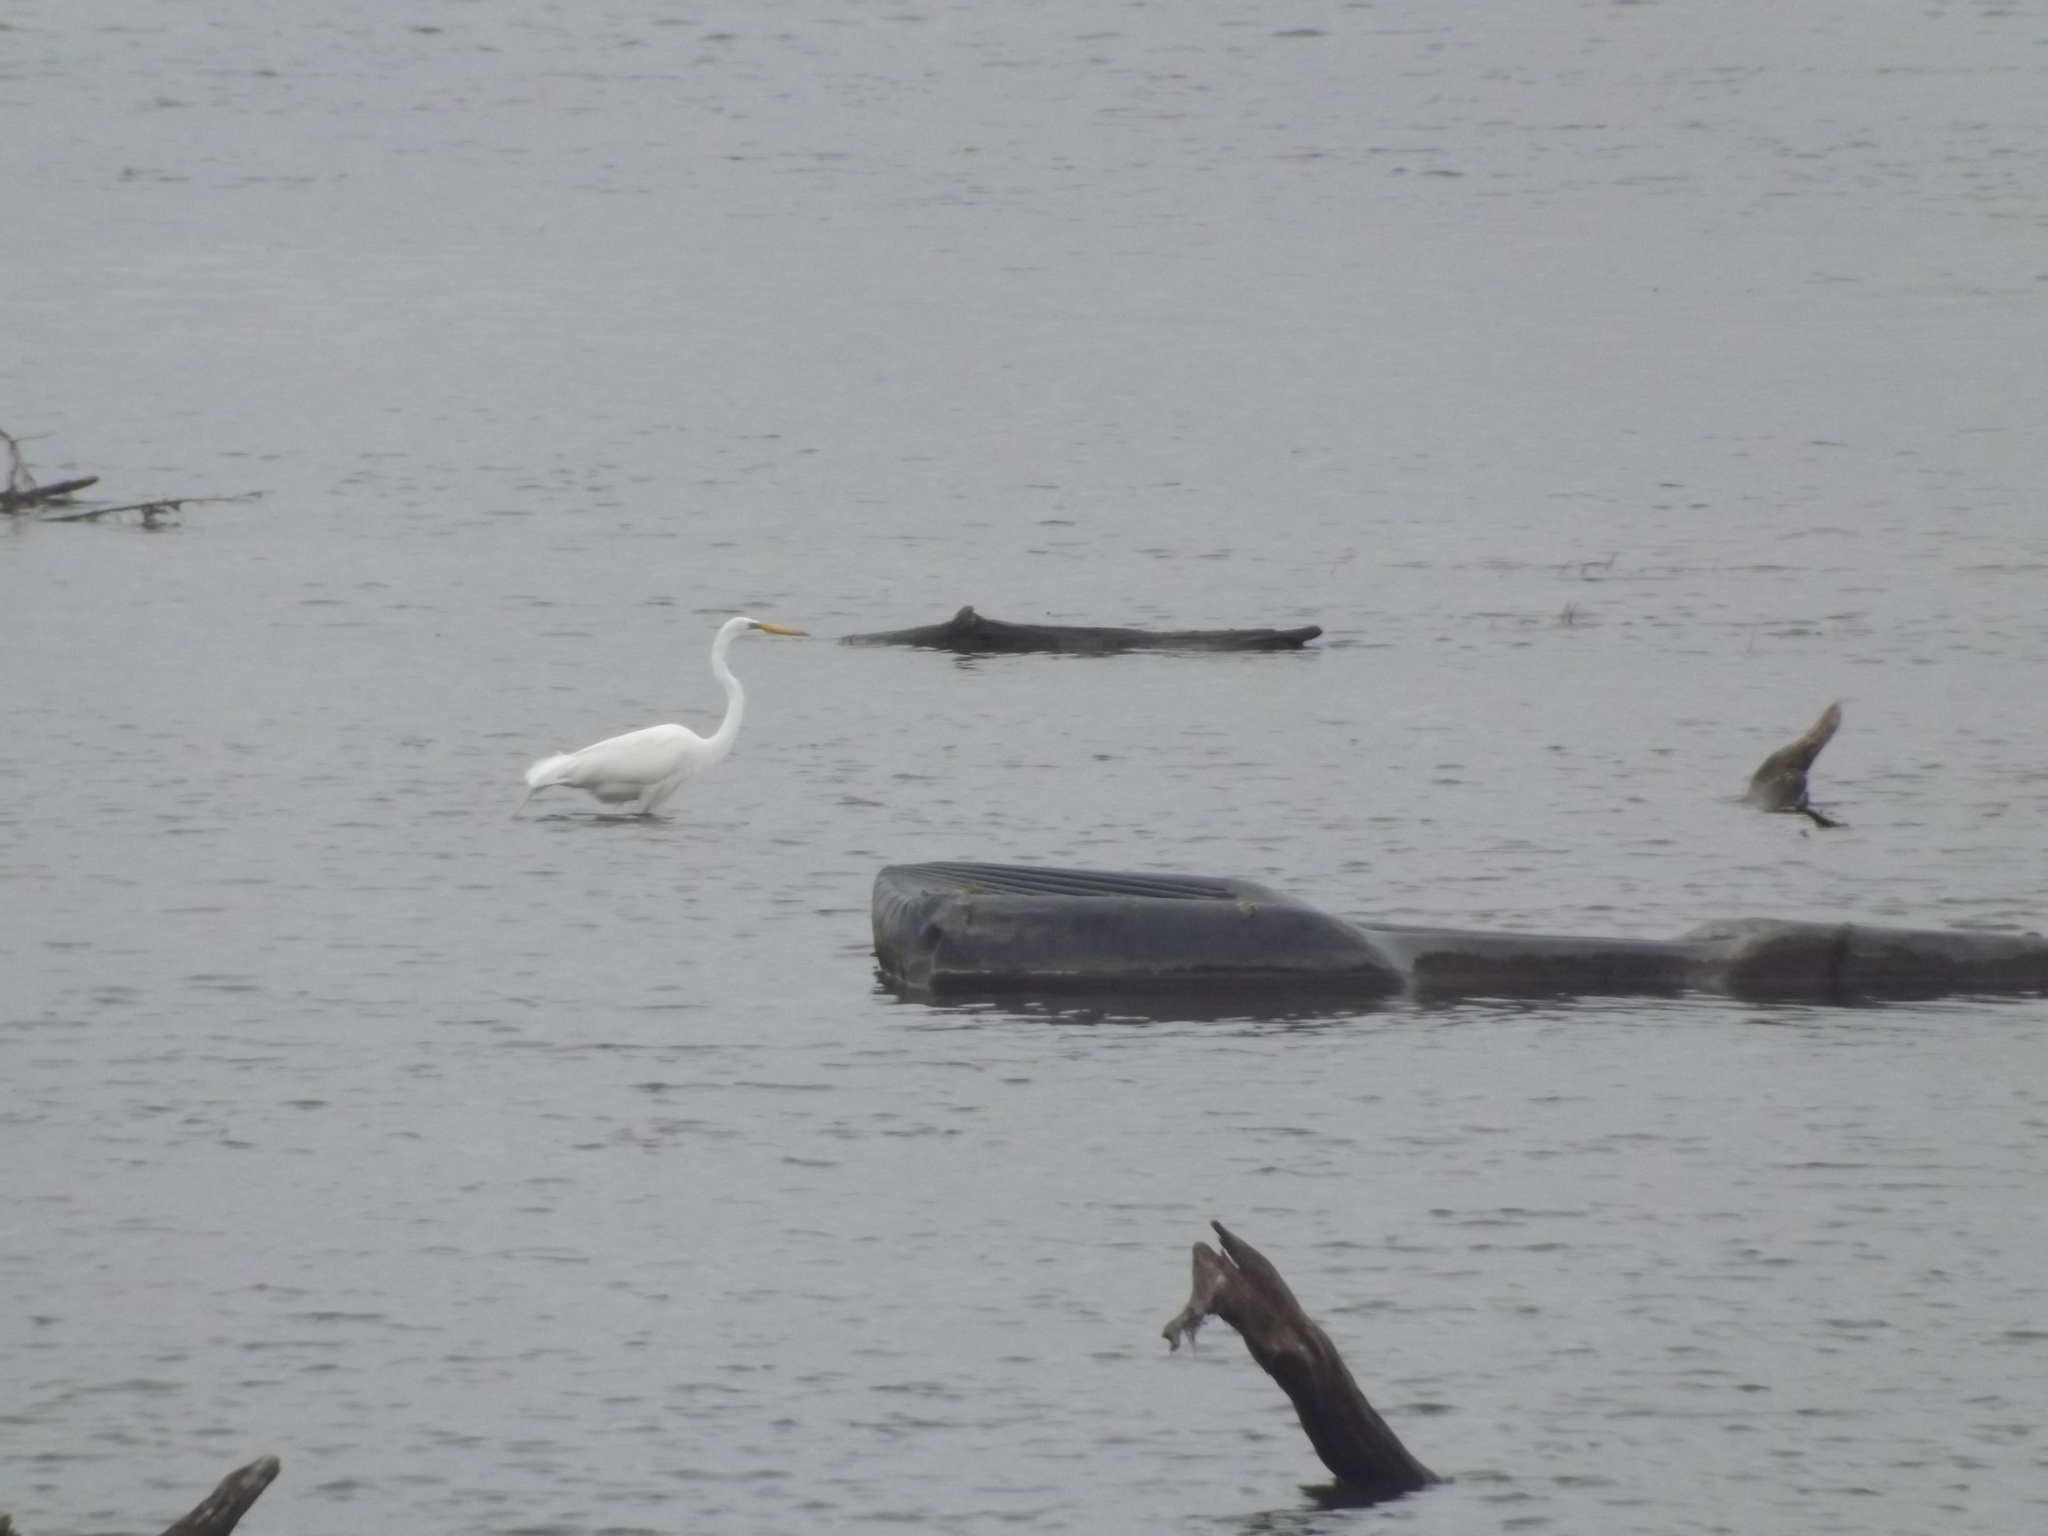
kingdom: Animalia
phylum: Chordata
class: Aves
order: Pelecaniformes
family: Ardeidae
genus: Ardea
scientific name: Ardea alba
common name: Great egret
